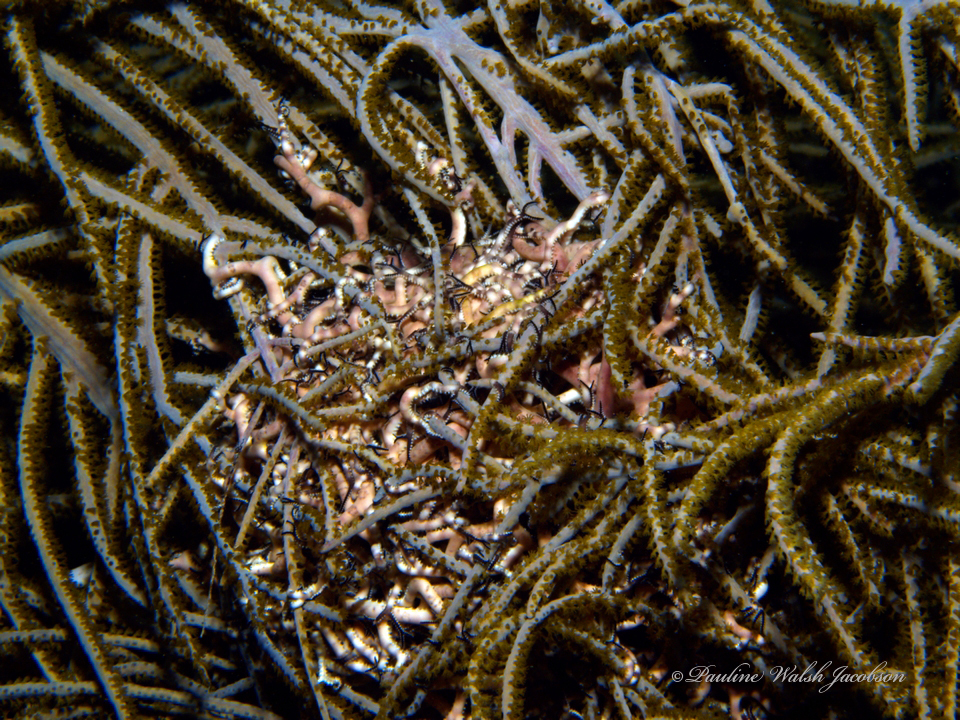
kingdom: Animalia
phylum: Echinodermata
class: Ophiuroidea
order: Euryalida
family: Gorgonocephalidae
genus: Astrophyton
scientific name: Astrophyton muricatum
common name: Basket starfish
